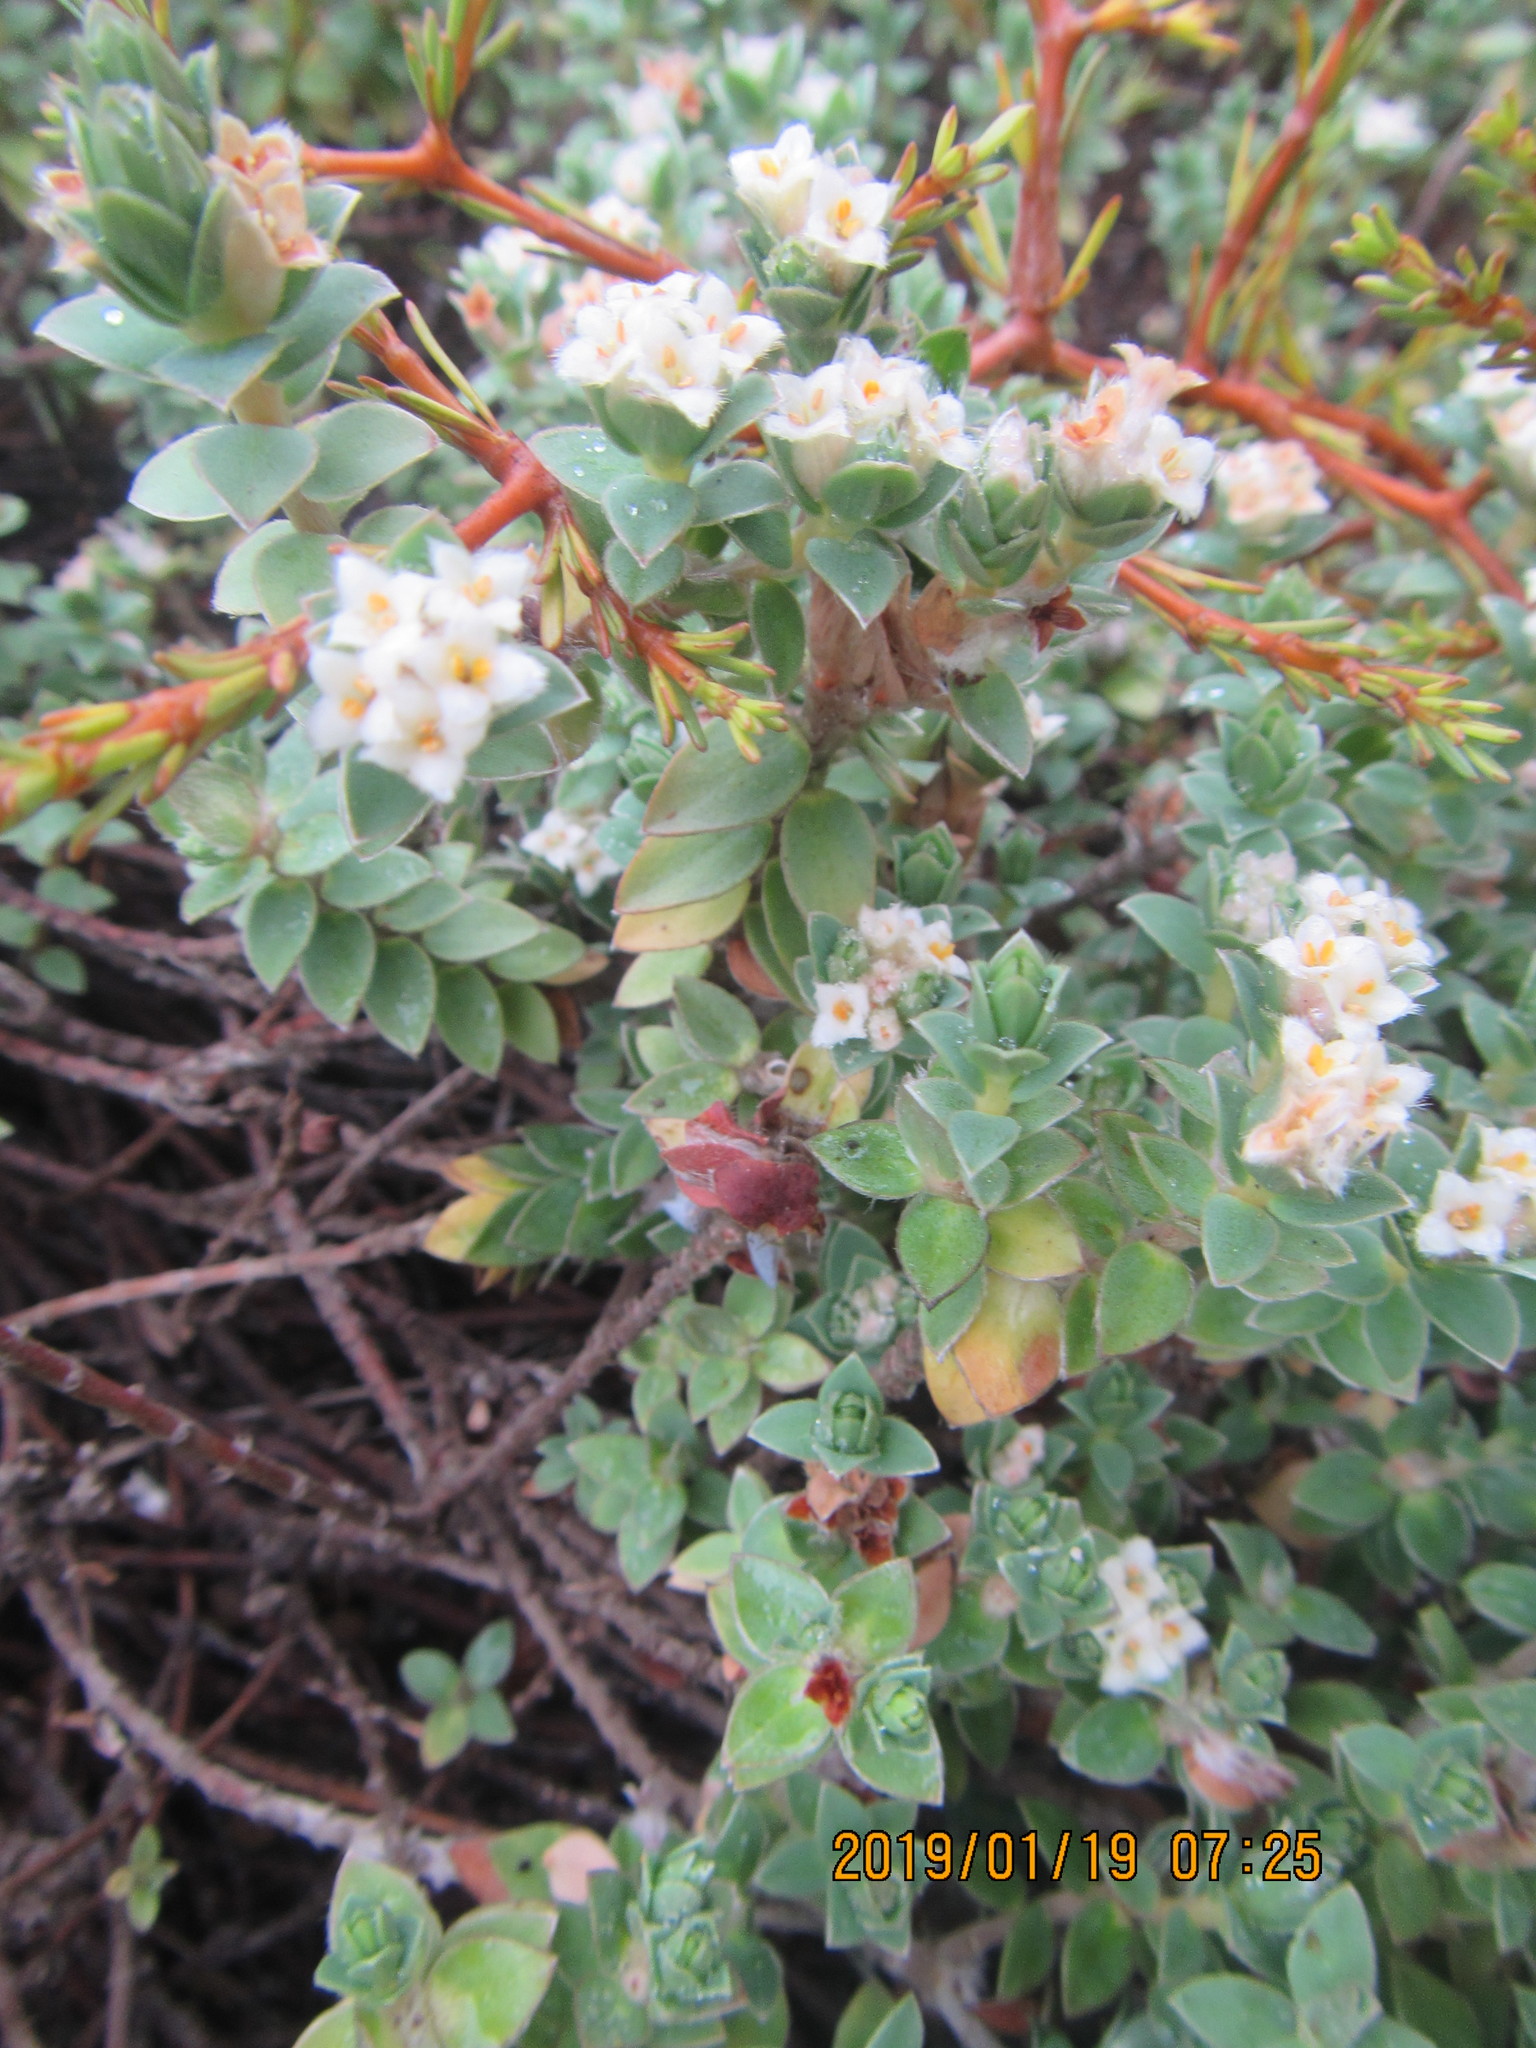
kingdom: Animalia
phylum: Arthropoda
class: Insecta
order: Hemiptera
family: Flatidae
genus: Anzora
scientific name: Anzora unicolor
